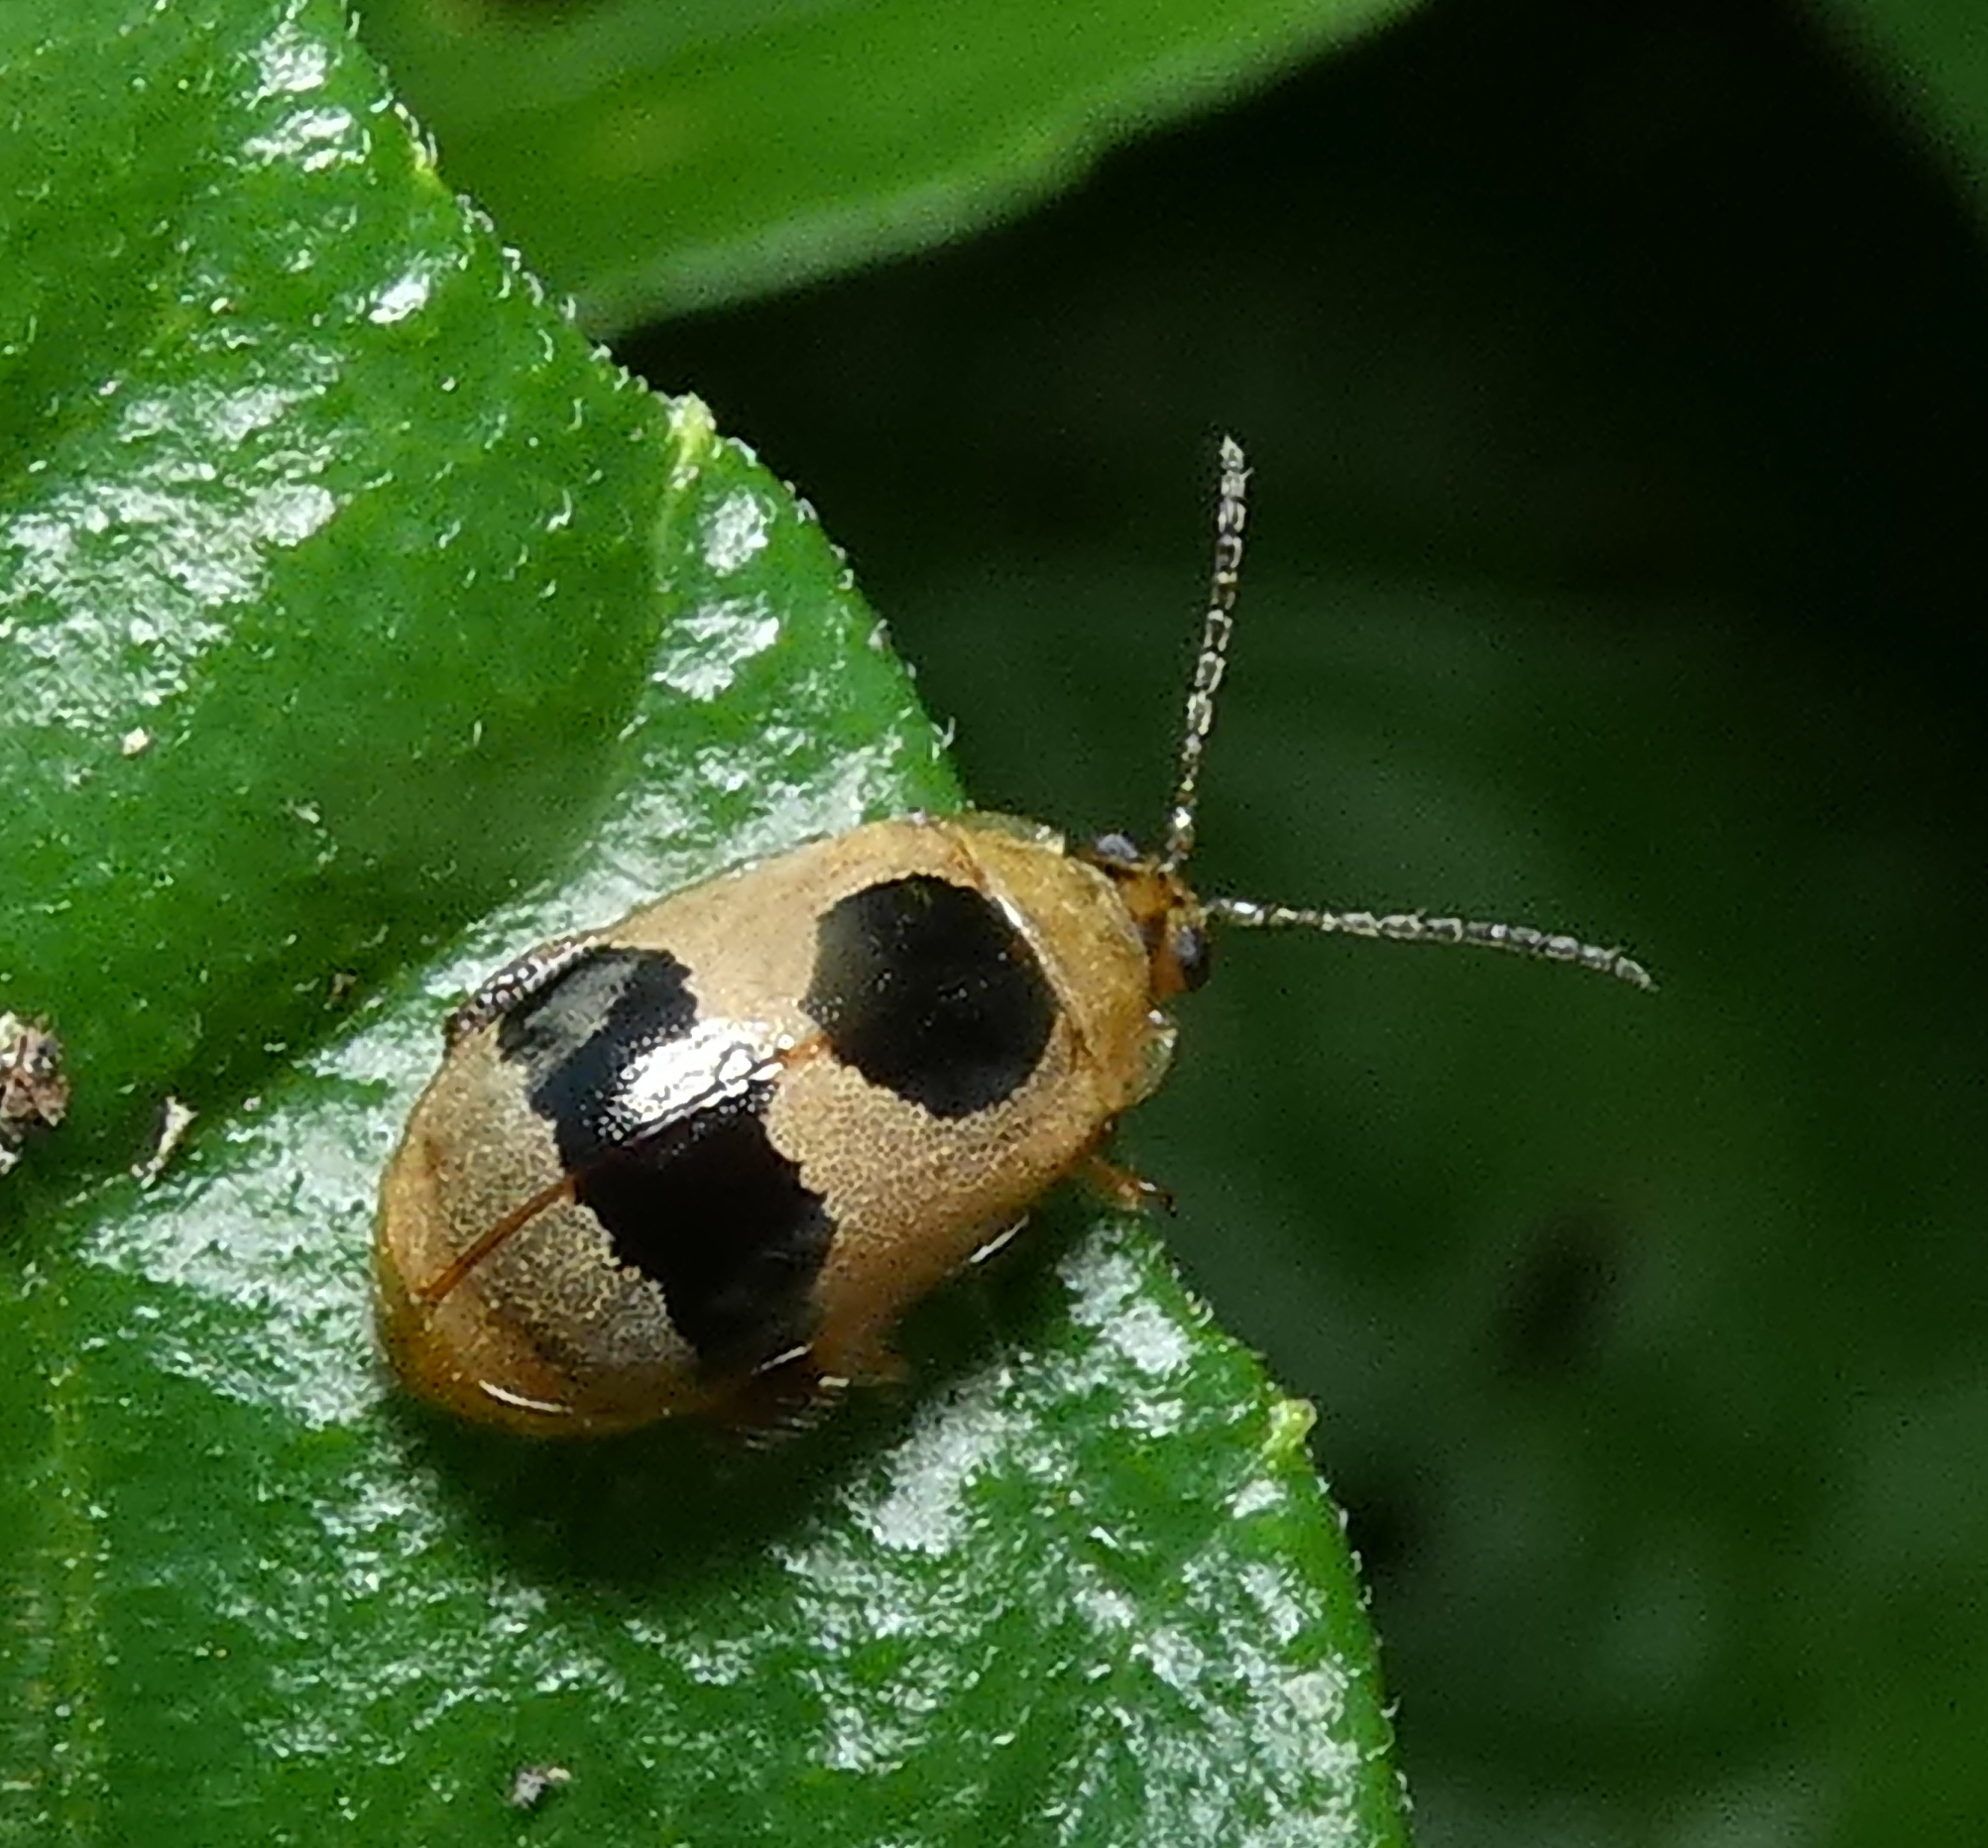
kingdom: Animalia
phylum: Arthropoda
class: Insecta
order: Coleoptera
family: Chrysomelidae
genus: Alagoasa
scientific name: Alagoasa
